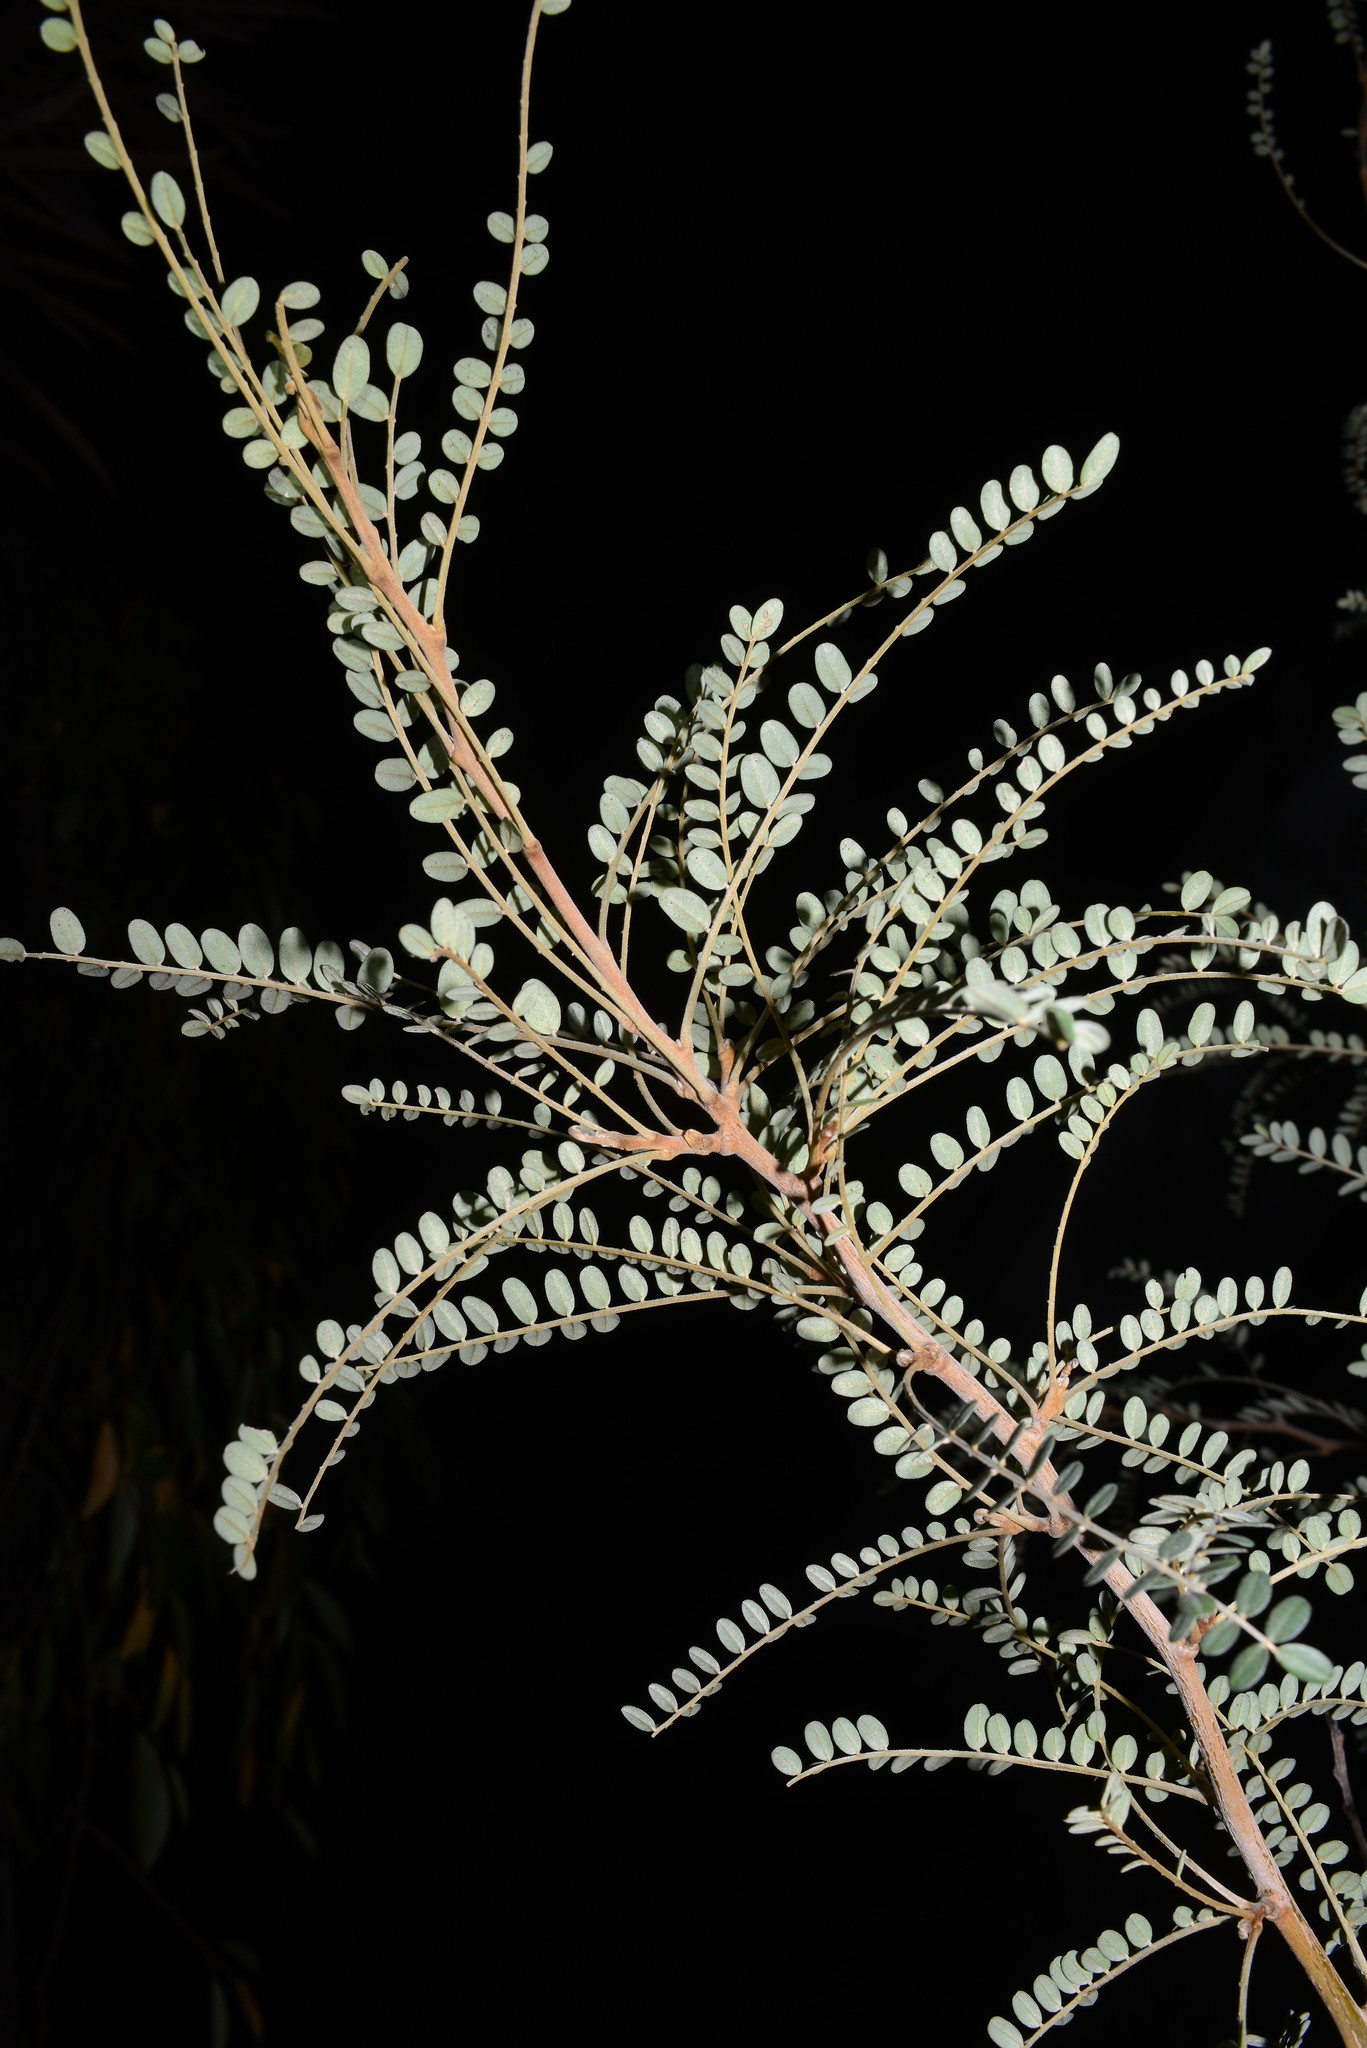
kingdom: Plantae
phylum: Tracheophyta
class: Magnoliopsida
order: Fabales
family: Fabaceae
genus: Sophora
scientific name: Sophora microphylla
